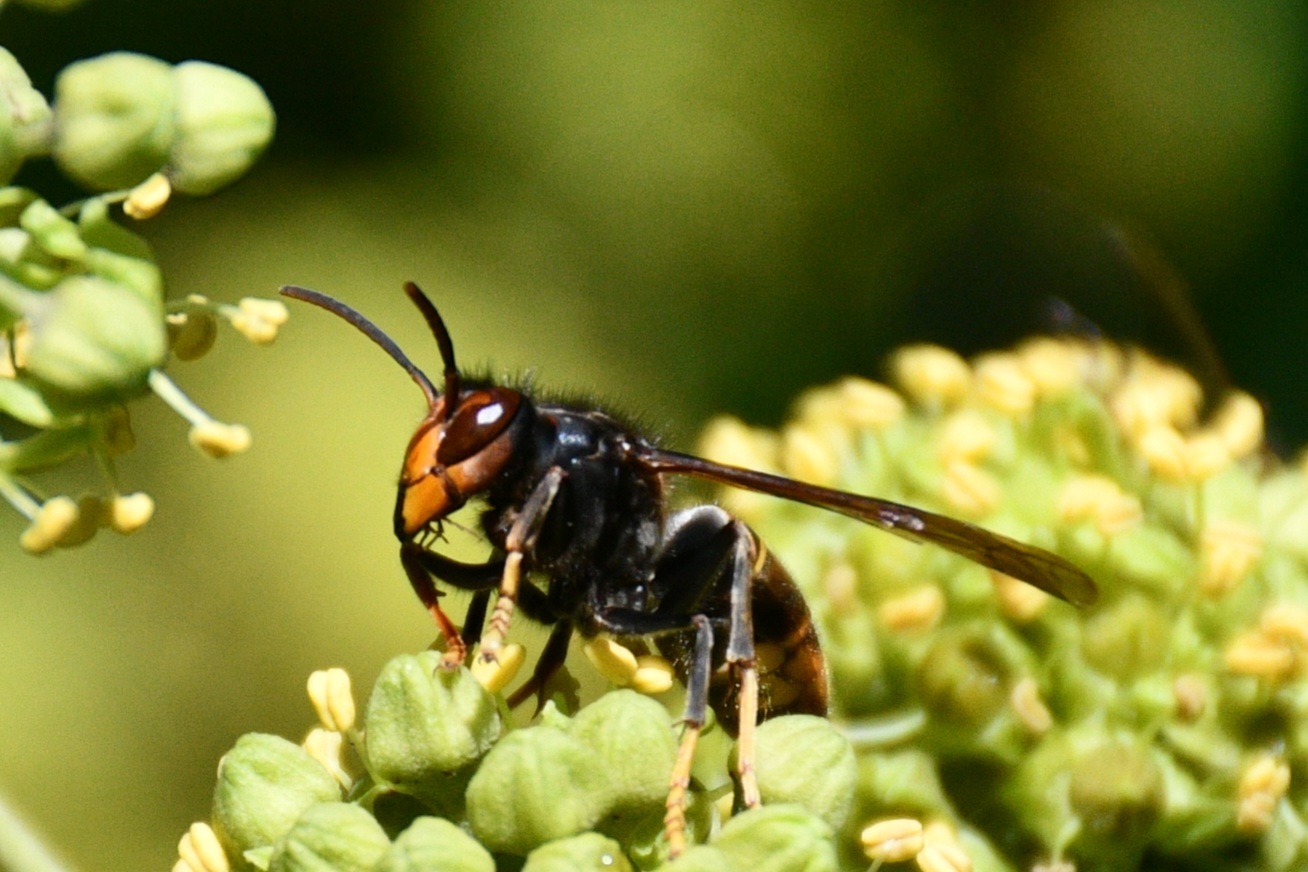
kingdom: Animalia
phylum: Arthropoda
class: Insecta
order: Hymenoptera
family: Vespidae
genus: Vespa
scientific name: Vespa velutina
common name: Asian hornet
